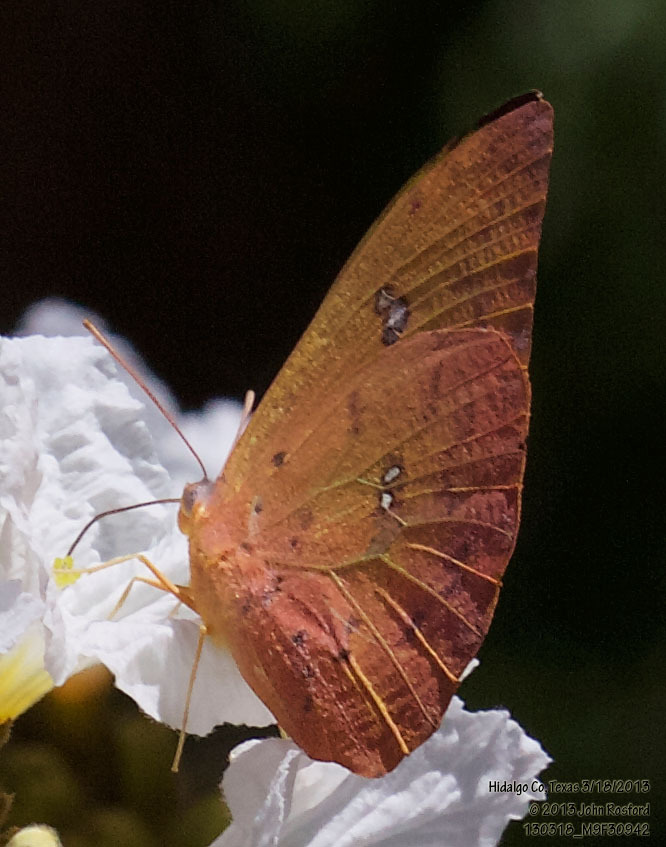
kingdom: Animalia
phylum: Arthropoda
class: Insecta
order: Lepidoptera
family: Pieridae
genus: Phoebis
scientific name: Phoebis philea
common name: Orange-barred giant sulphur
